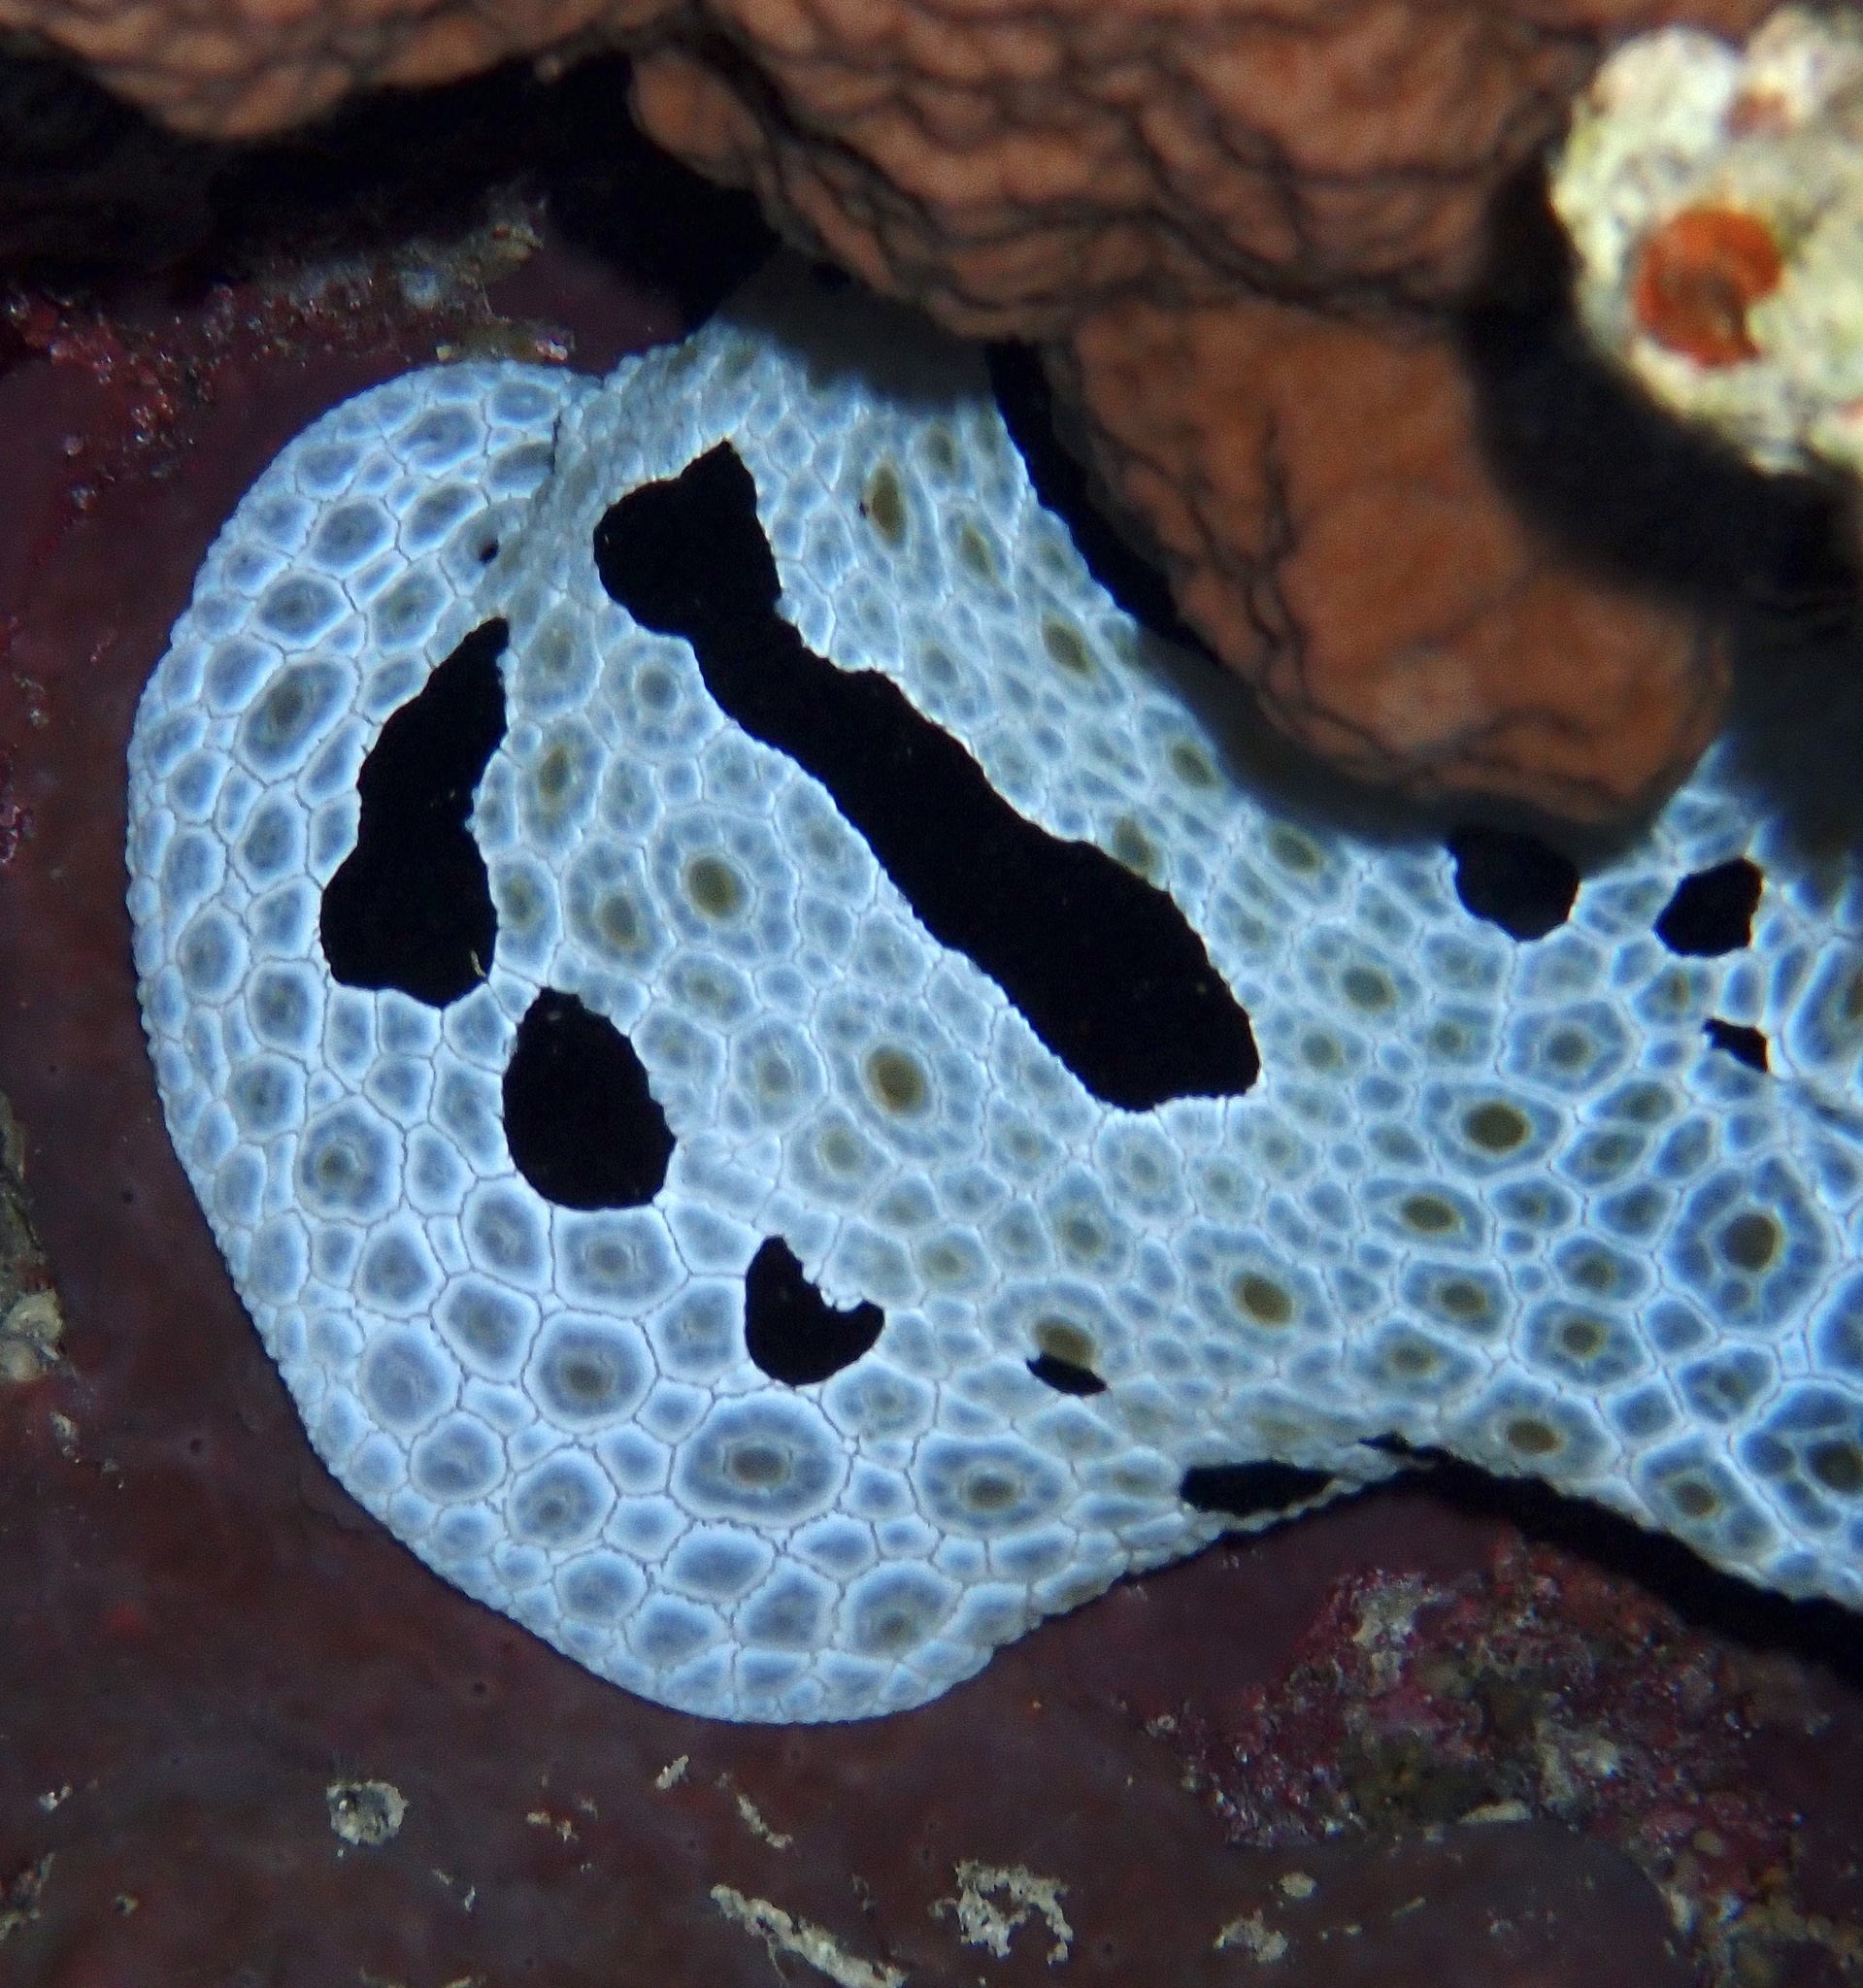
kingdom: Animalia
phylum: Mollusca
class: Gastropoda
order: Pleurobranchida
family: Pleurobranchidae
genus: Pleurobranchus
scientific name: Pleurobranchus grandis
